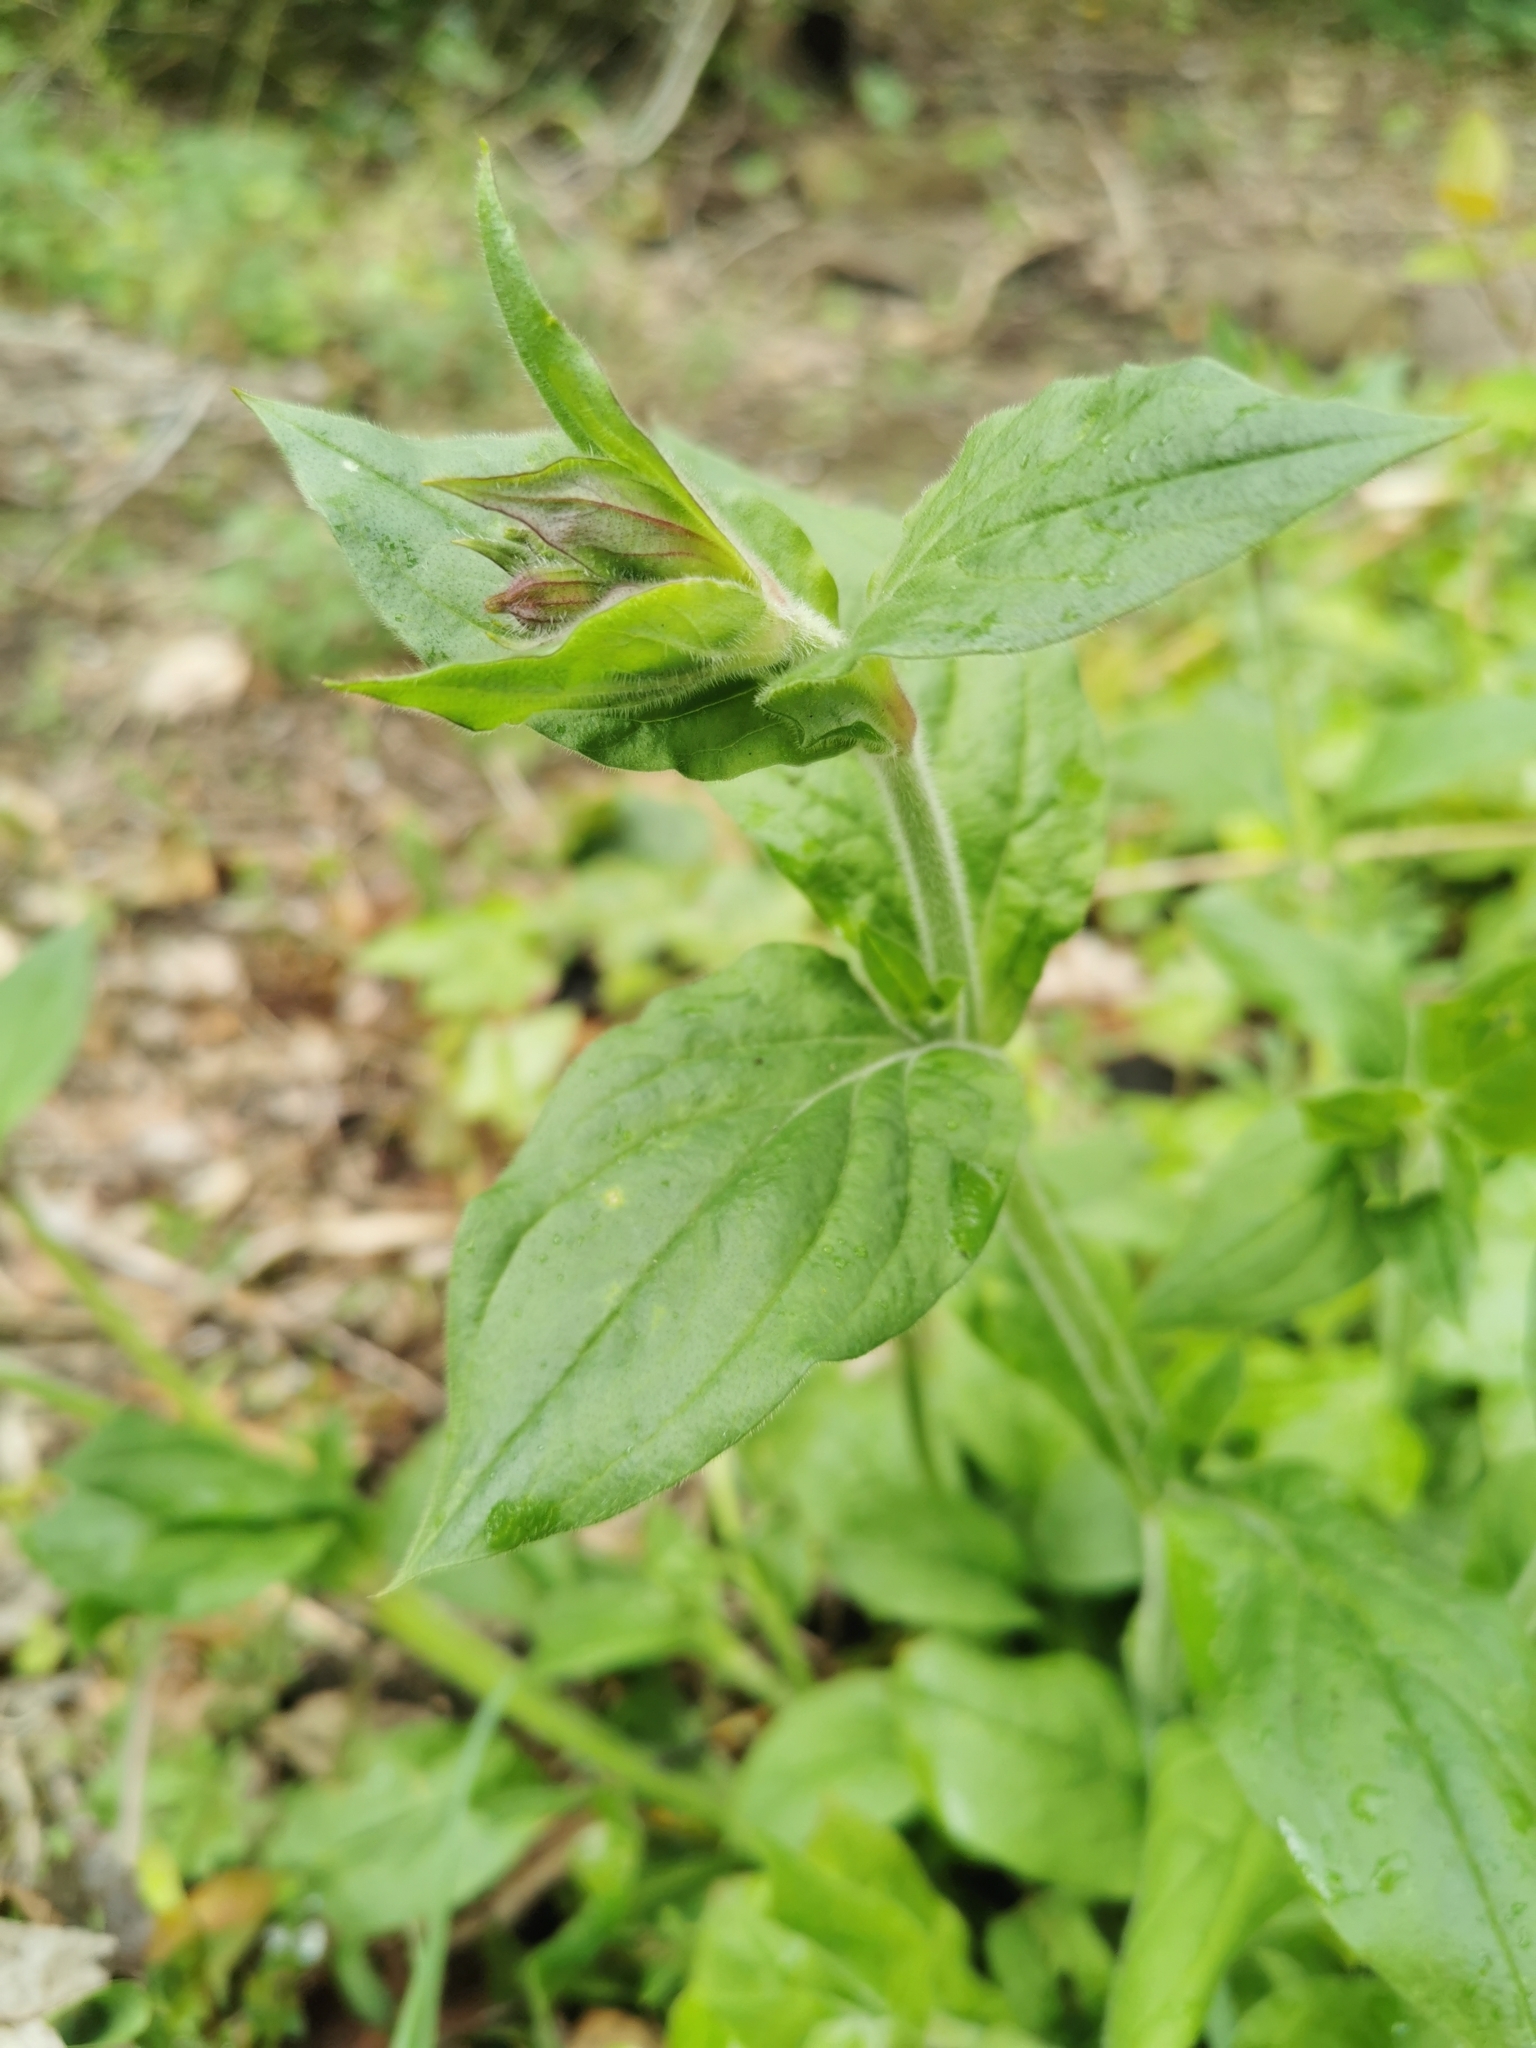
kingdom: Plantae
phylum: Tracheophyta
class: Magnoliopsida
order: Caryophyllales
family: Caryophyllaceae
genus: Silene
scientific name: Silene dioica
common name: Red campion
